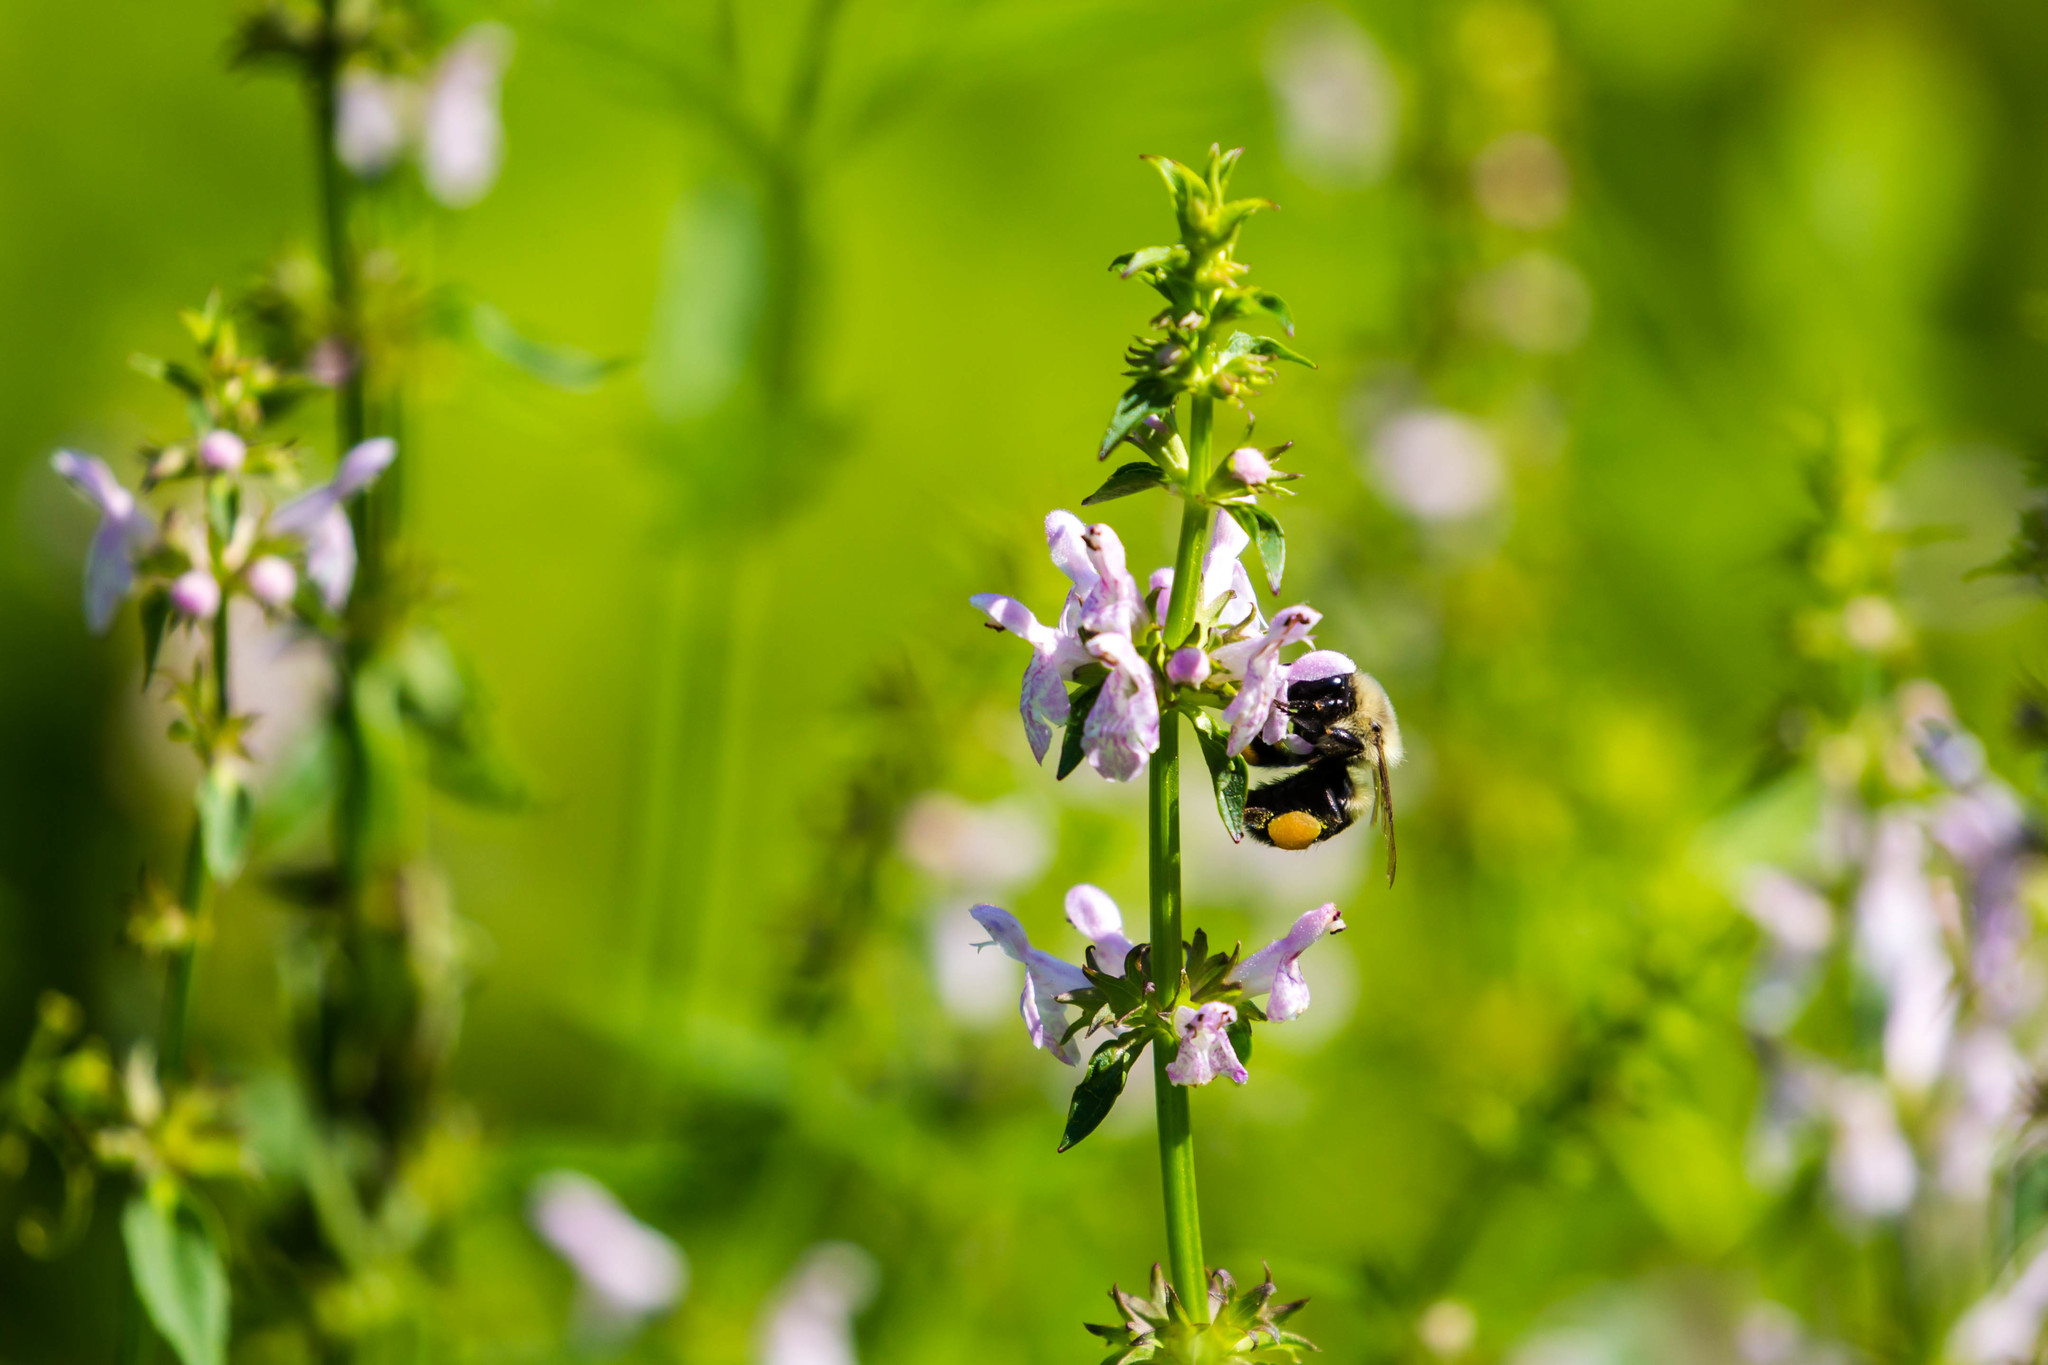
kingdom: Animalia
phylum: Arthropoda
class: Insecta
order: Hymenoptera
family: Apidae
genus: Bombus
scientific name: Bombus impatiens
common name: Common eastern bumble bee
